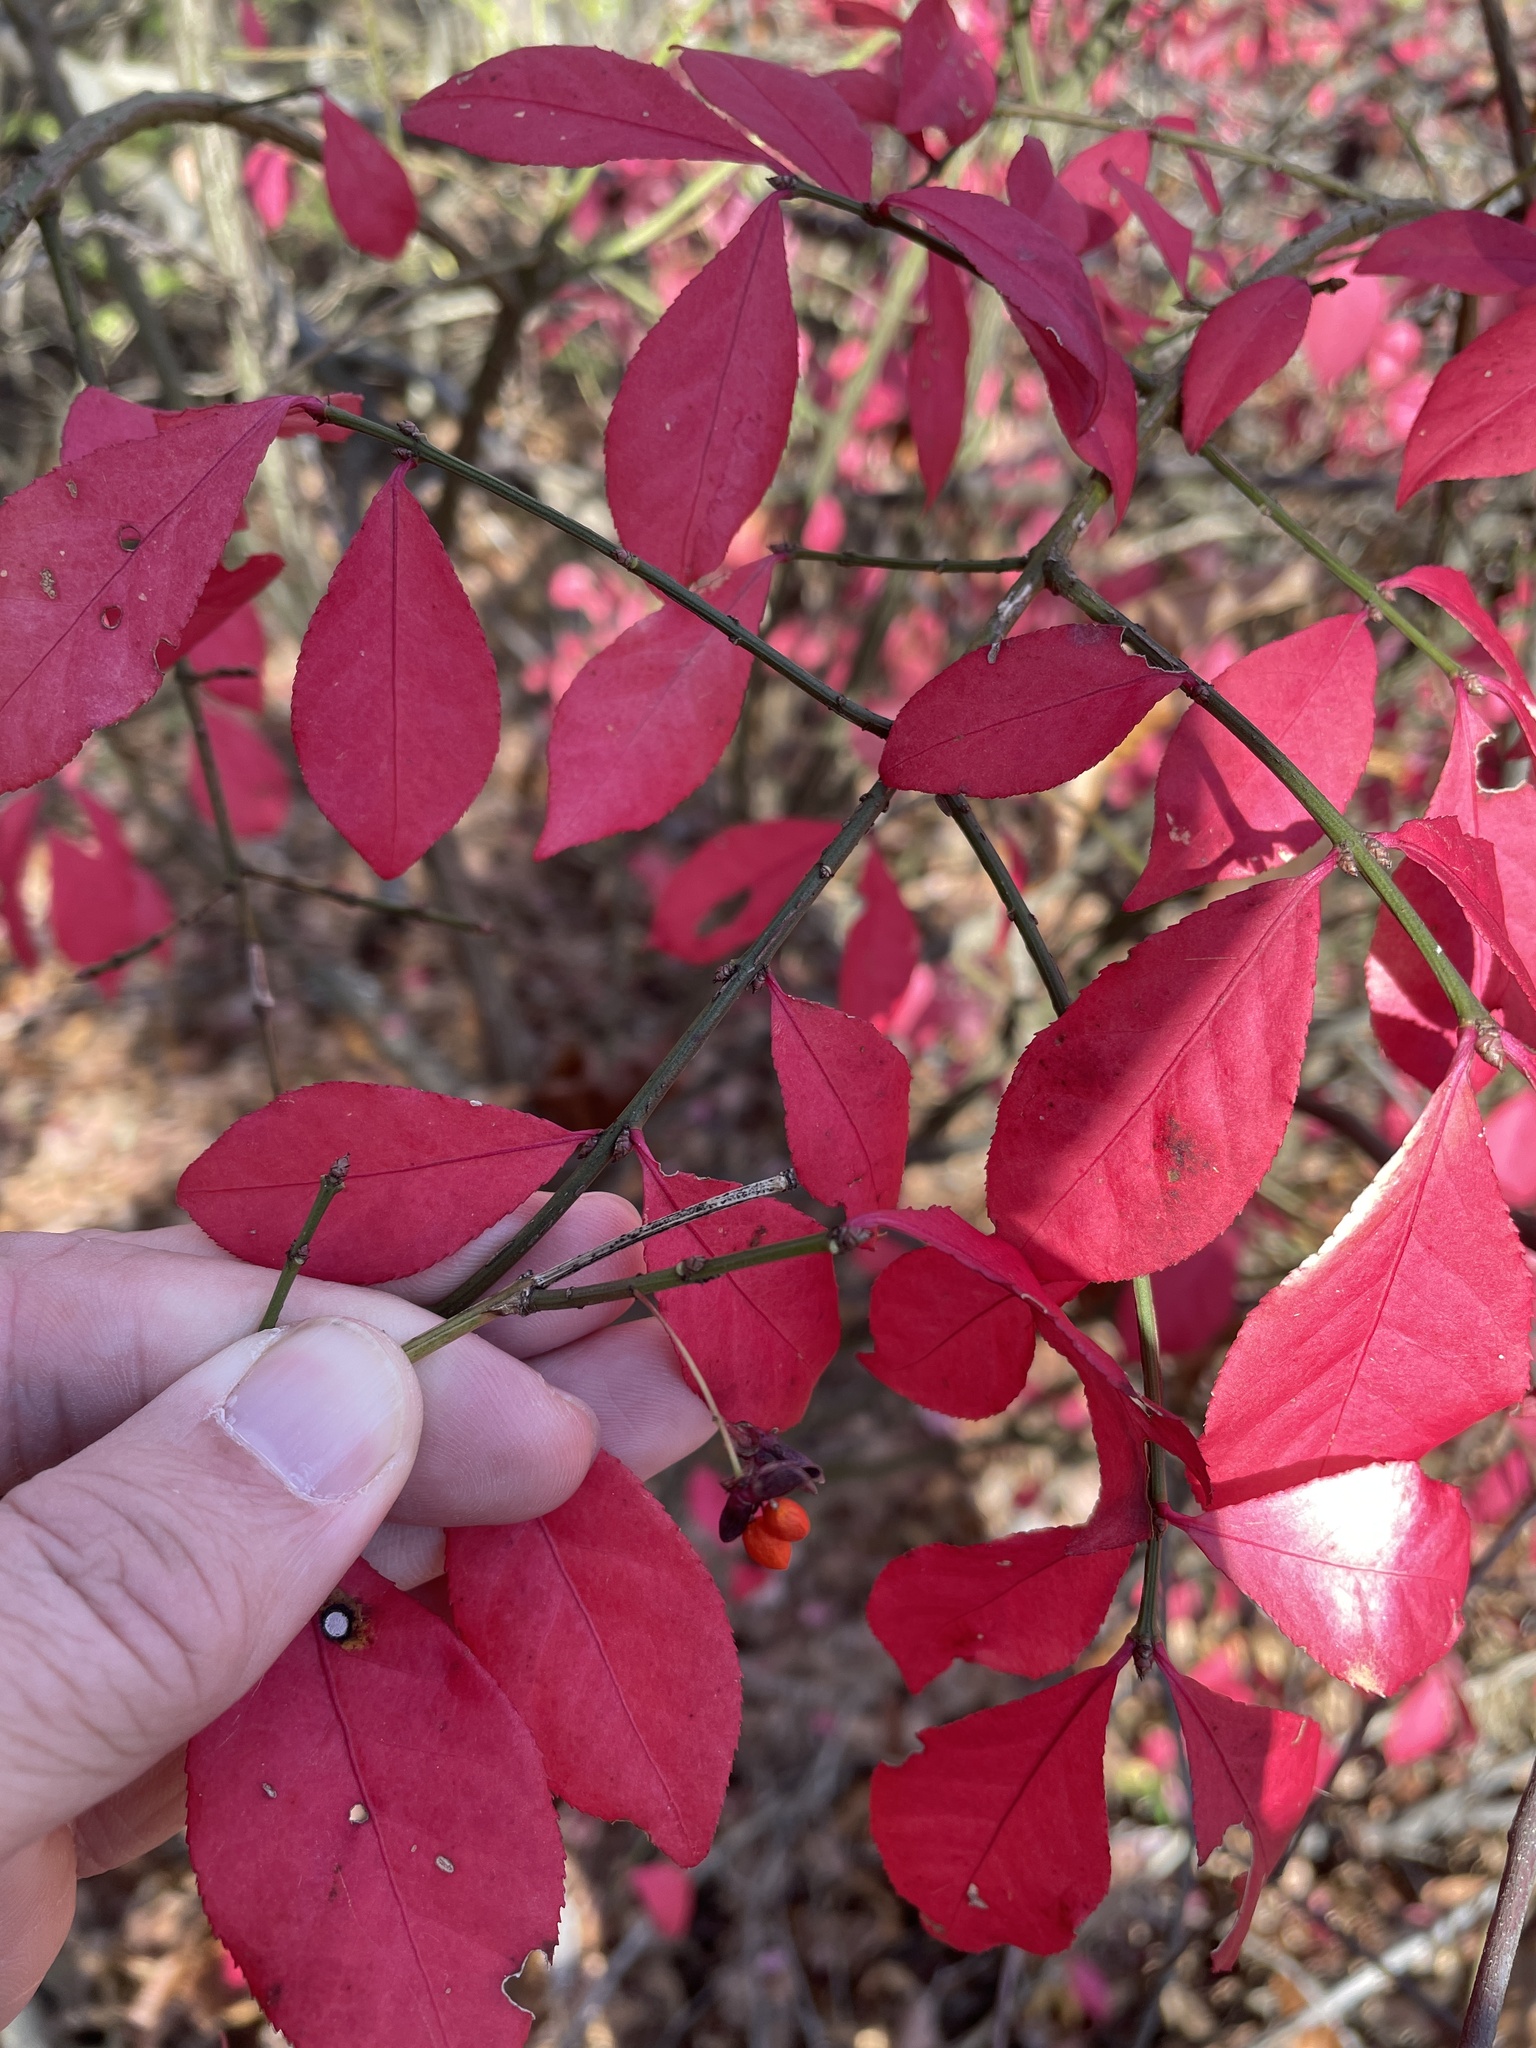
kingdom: Plantae
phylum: Tracheophyta
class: Magnoliopsida
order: Celastrales
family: Celastraceae
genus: Euonymus
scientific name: Euonymus alatus
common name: Winged euonymus
